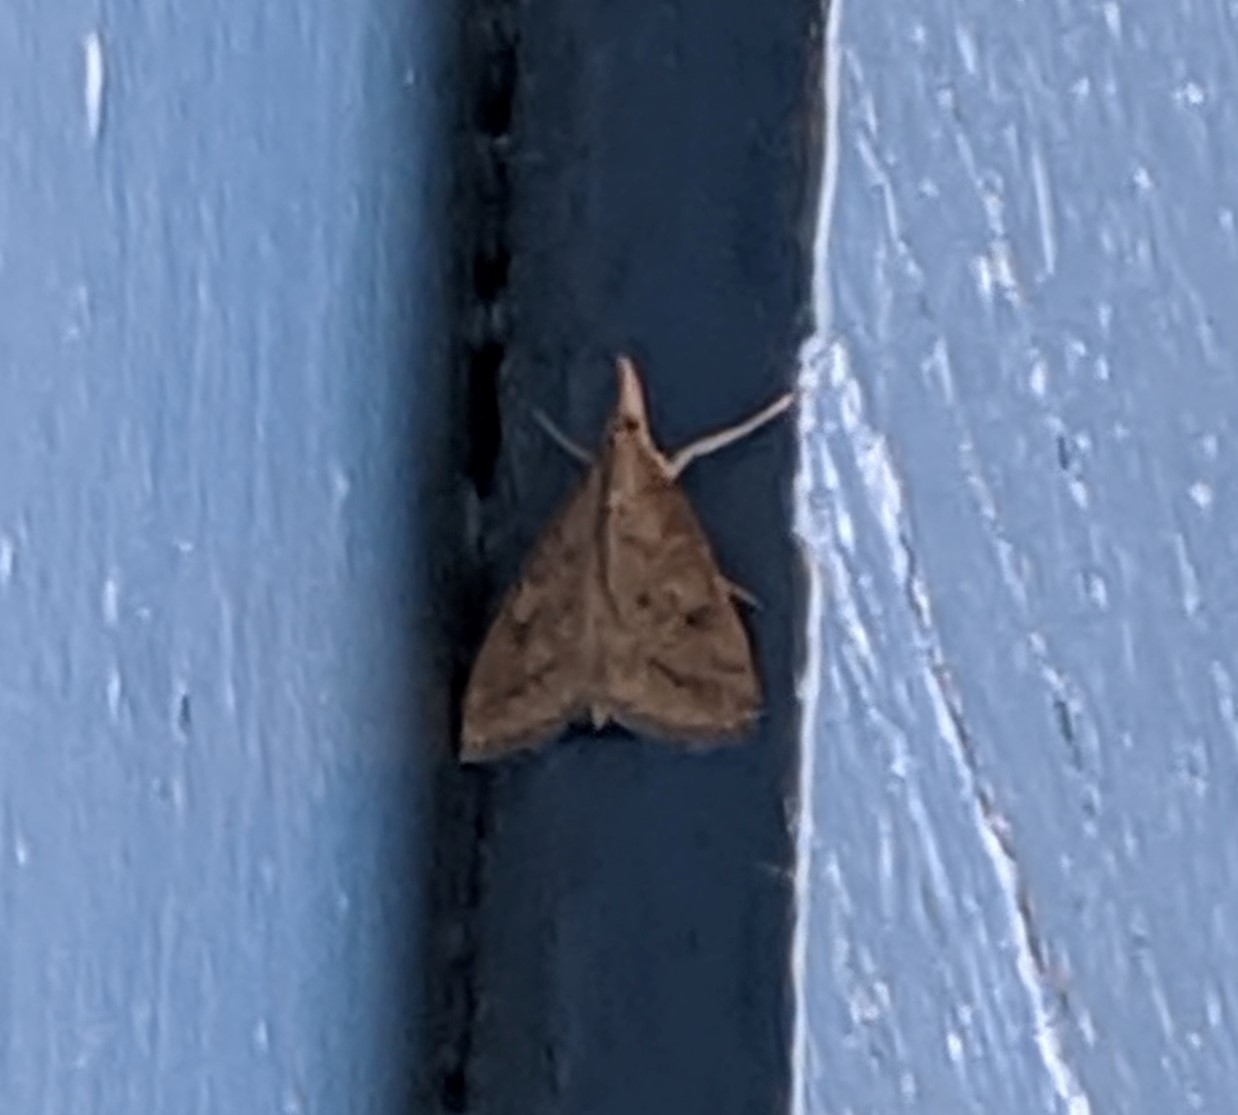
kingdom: Animalia
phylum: Arthropoda
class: Insecta
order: Lepidoptera
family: Crambidae
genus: Udea
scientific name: Udea rubigalis
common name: Celery leaftier moth
